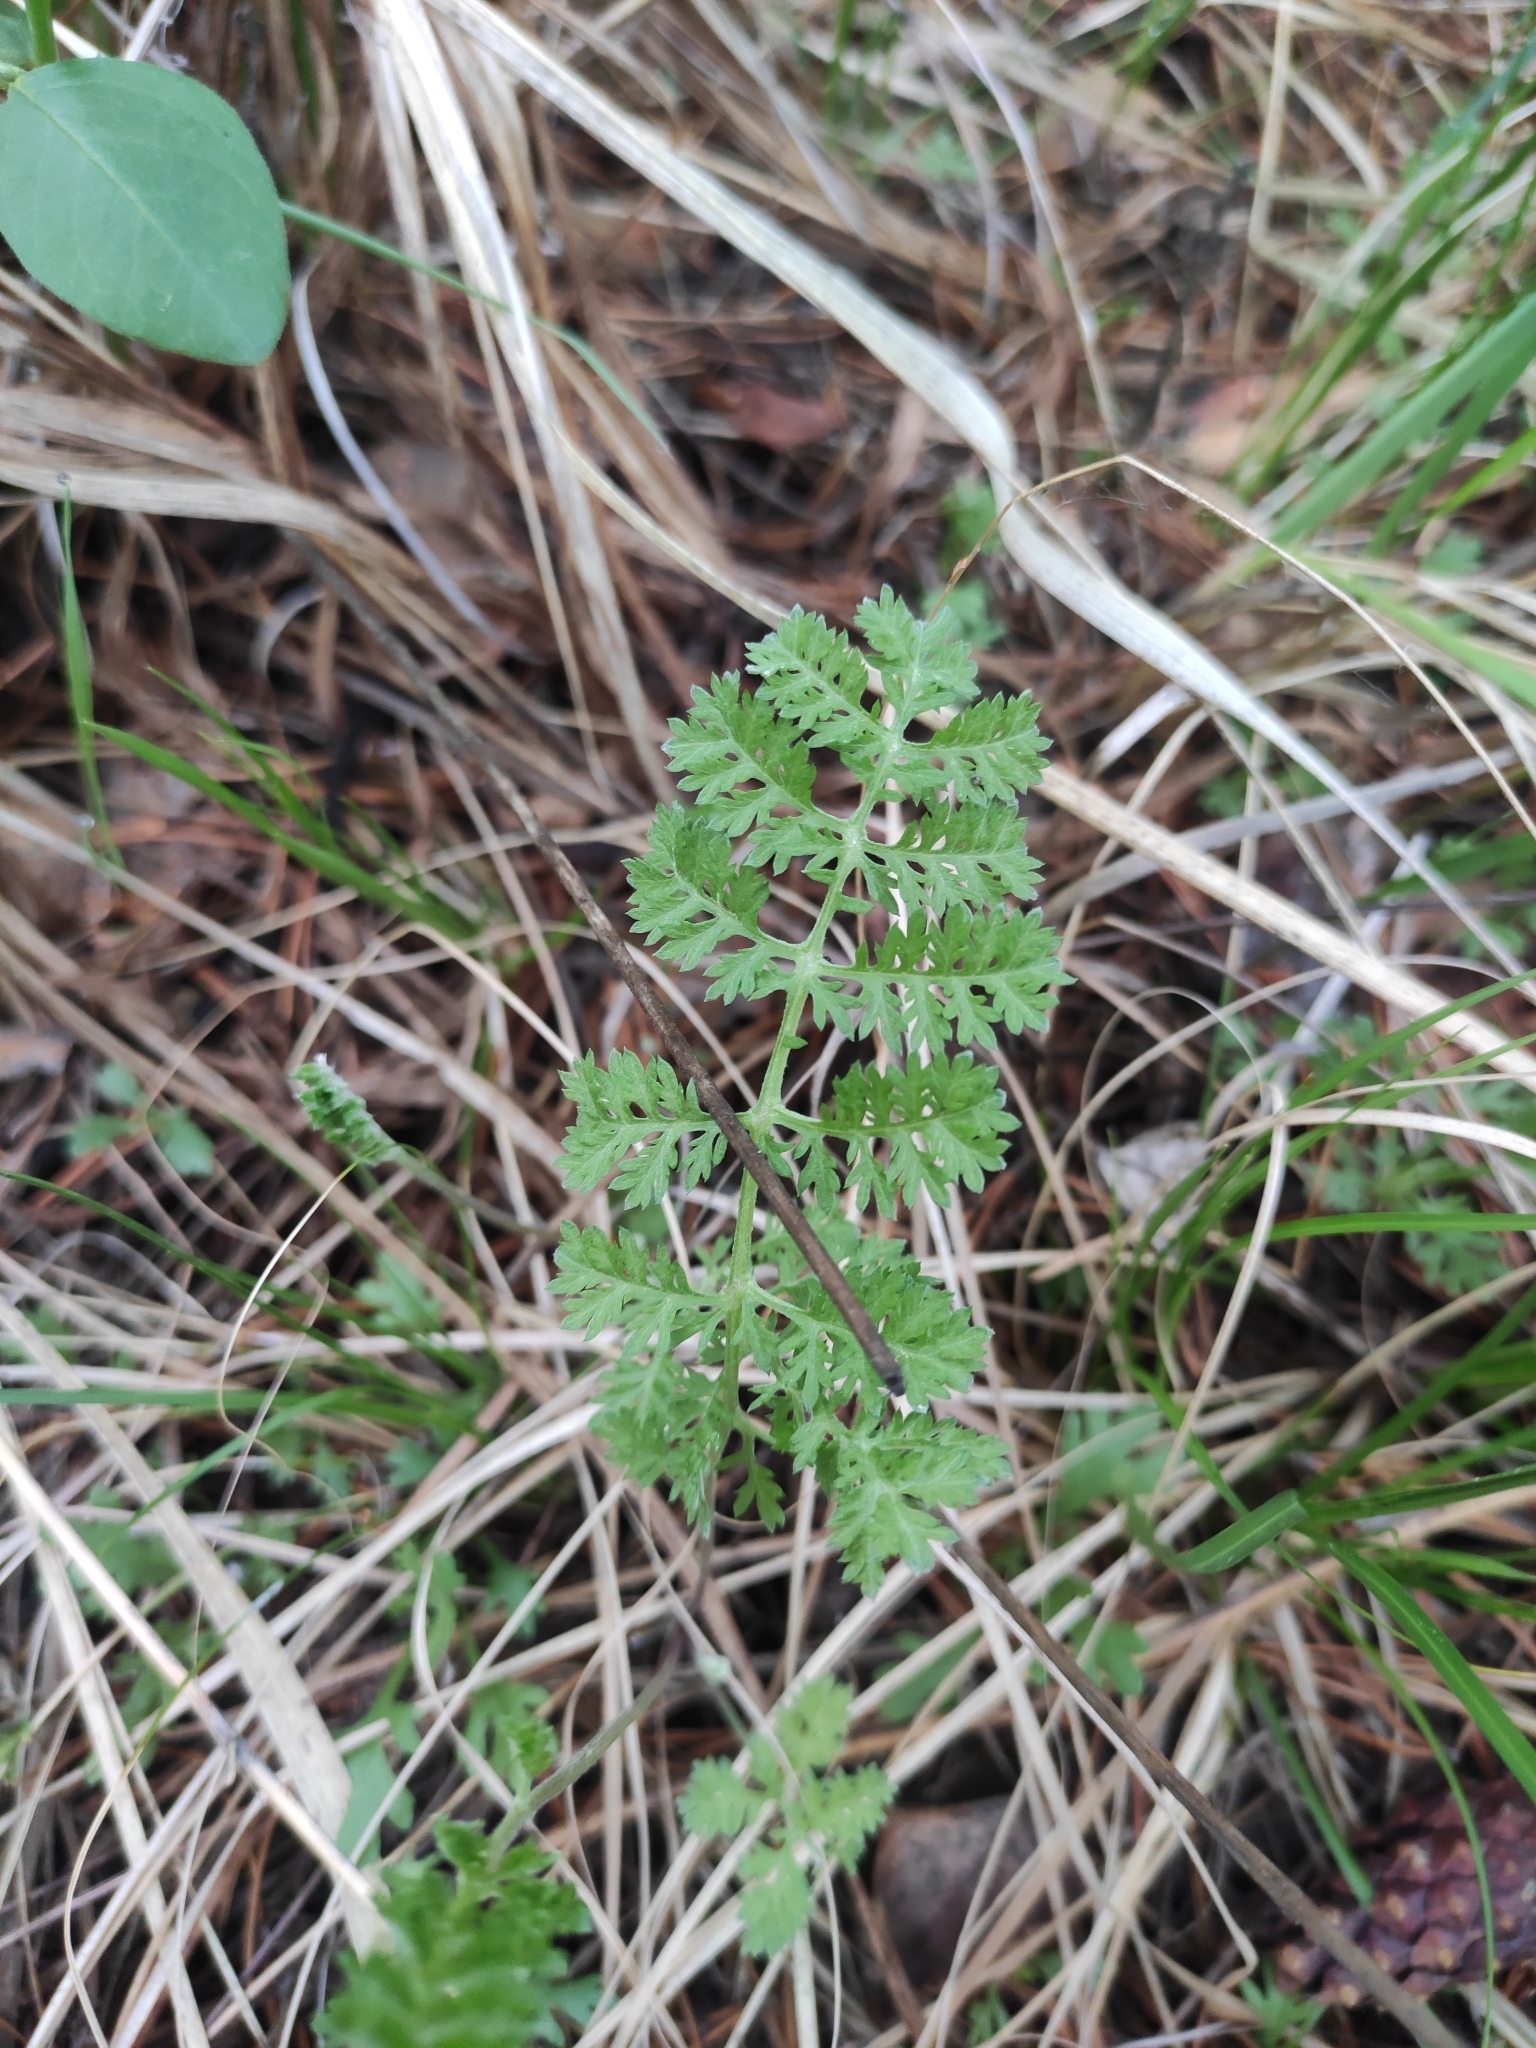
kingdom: Plantae
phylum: Tracheophyta
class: Magnoliopsida
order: Asterales
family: Asteraceae
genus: Artemisia
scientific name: Artemisia tanacetifolia
